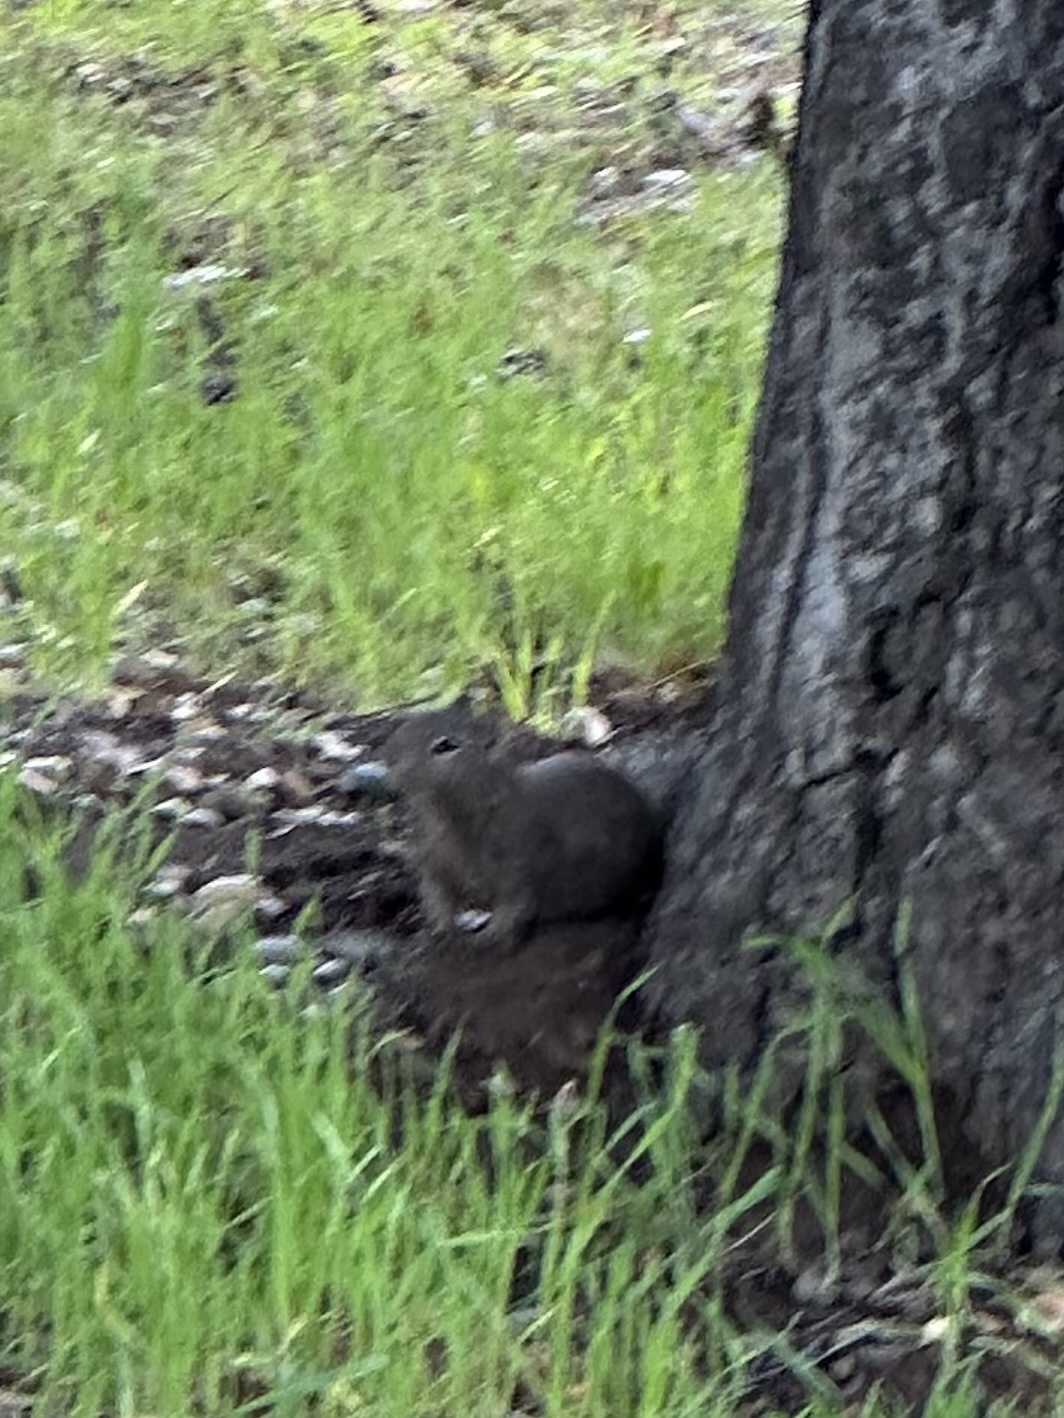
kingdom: Animalia
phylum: Chordata
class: Mammalia
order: Rodentia
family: Sciuridae
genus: Otospermophilus
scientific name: Otospermophilus beecheyi
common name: California ground squirrel
